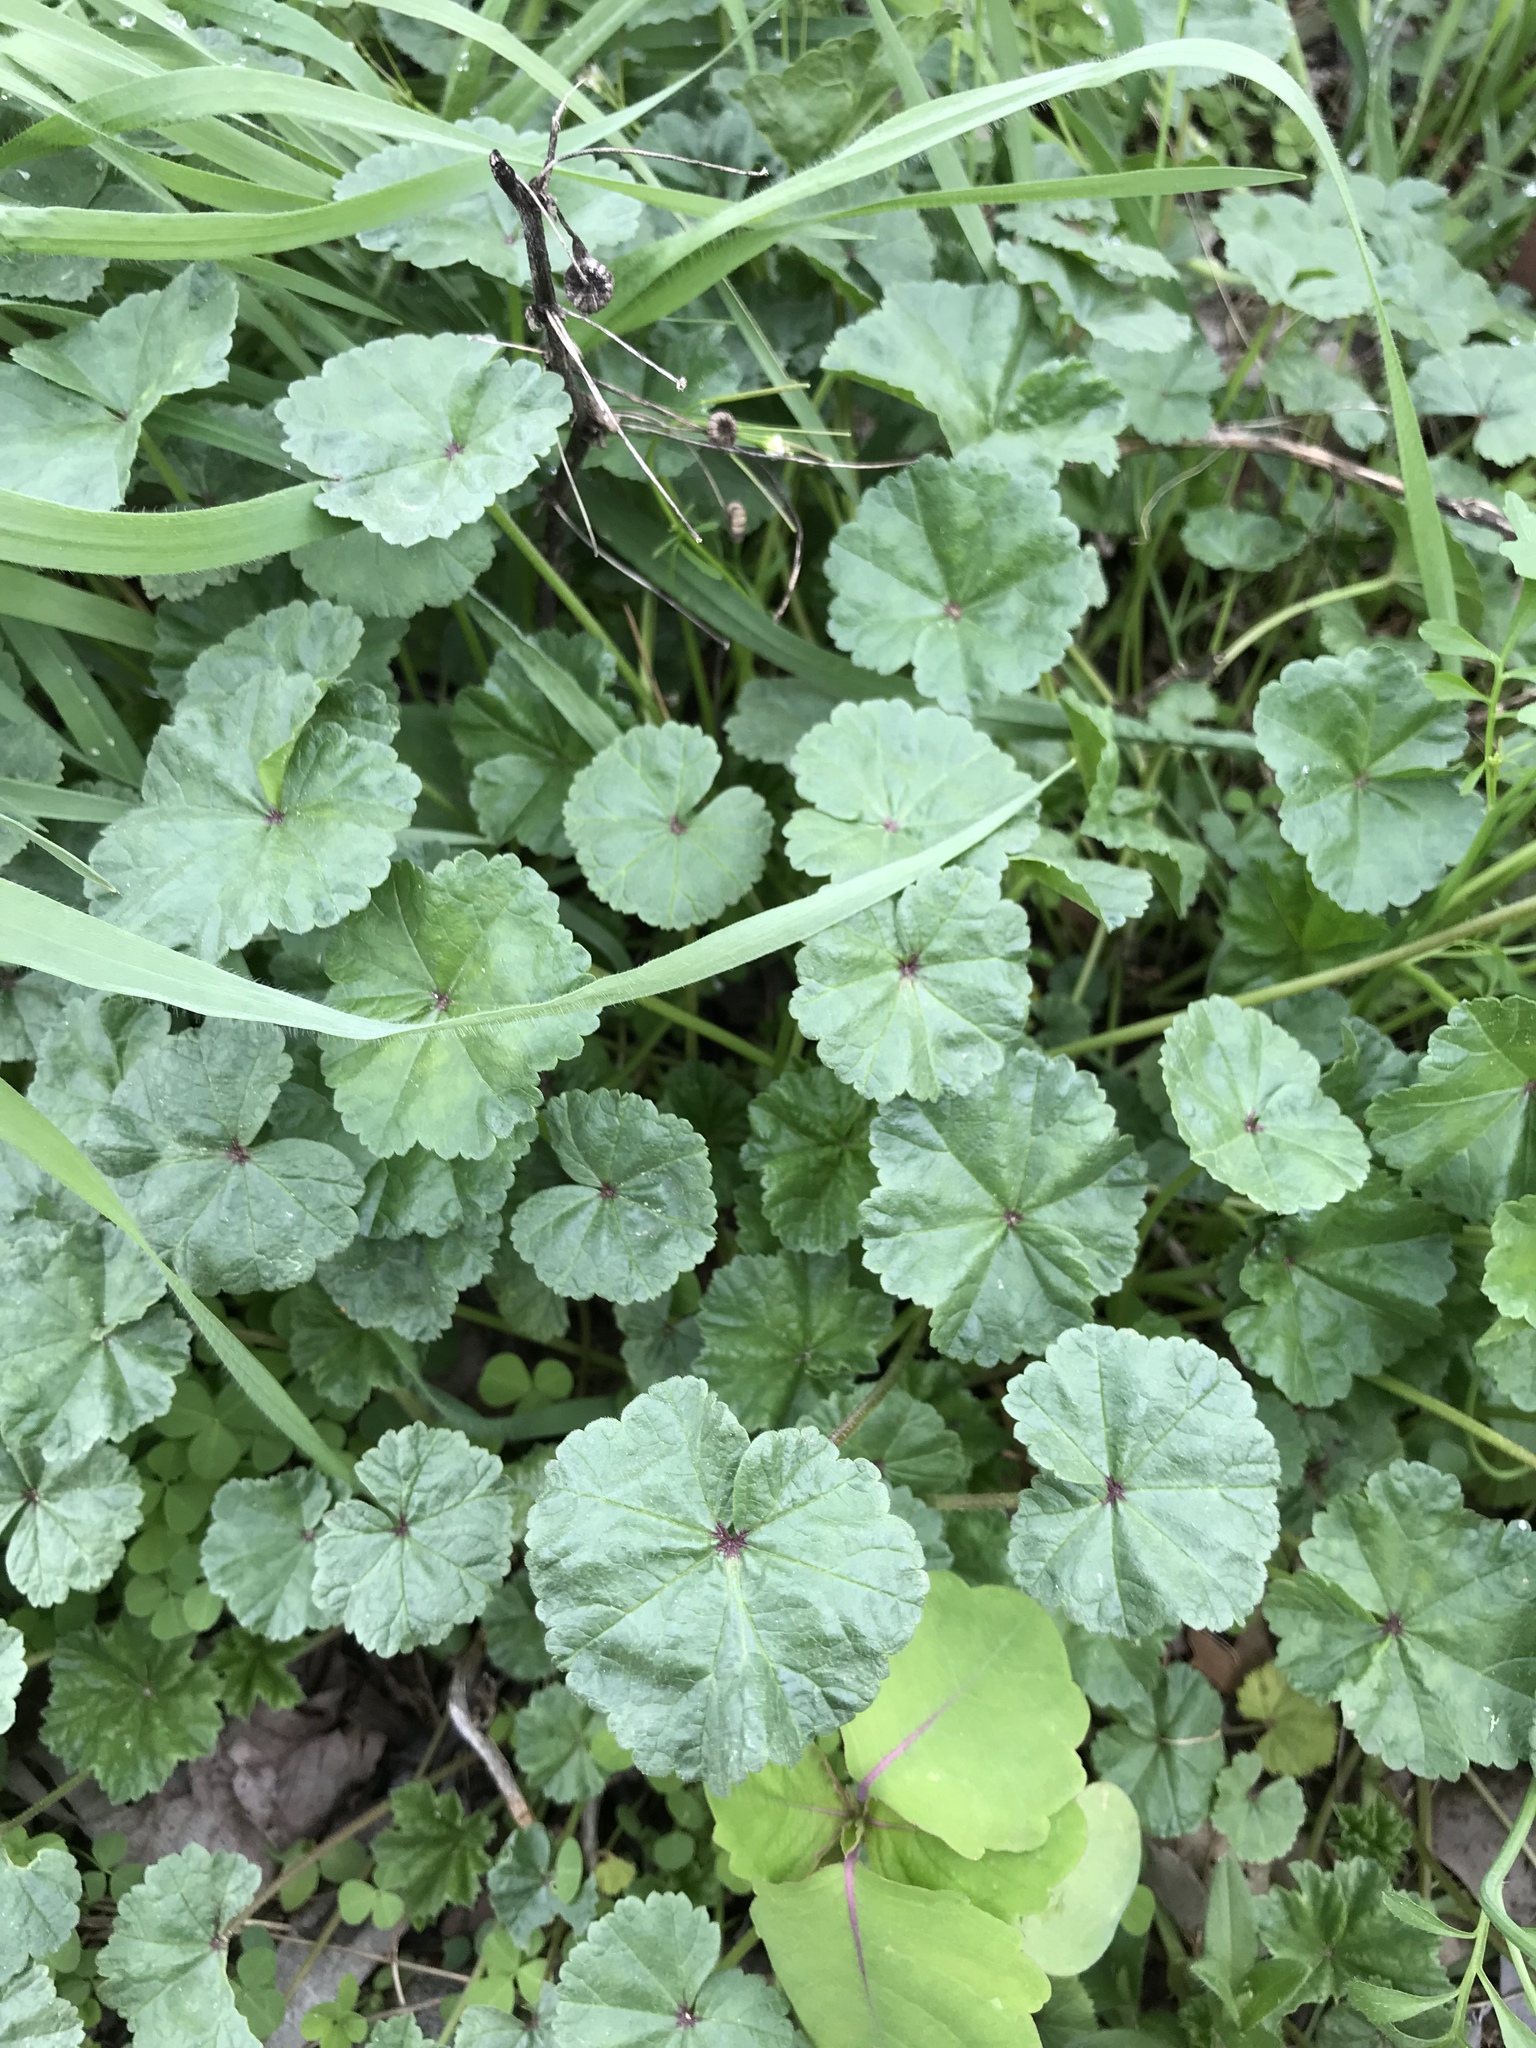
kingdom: Plantae
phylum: Tracheophyta
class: Magnoliopsida
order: Malvales
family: Malvaceae
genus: Malva
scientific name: Malva neglecta
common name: Common mallow
